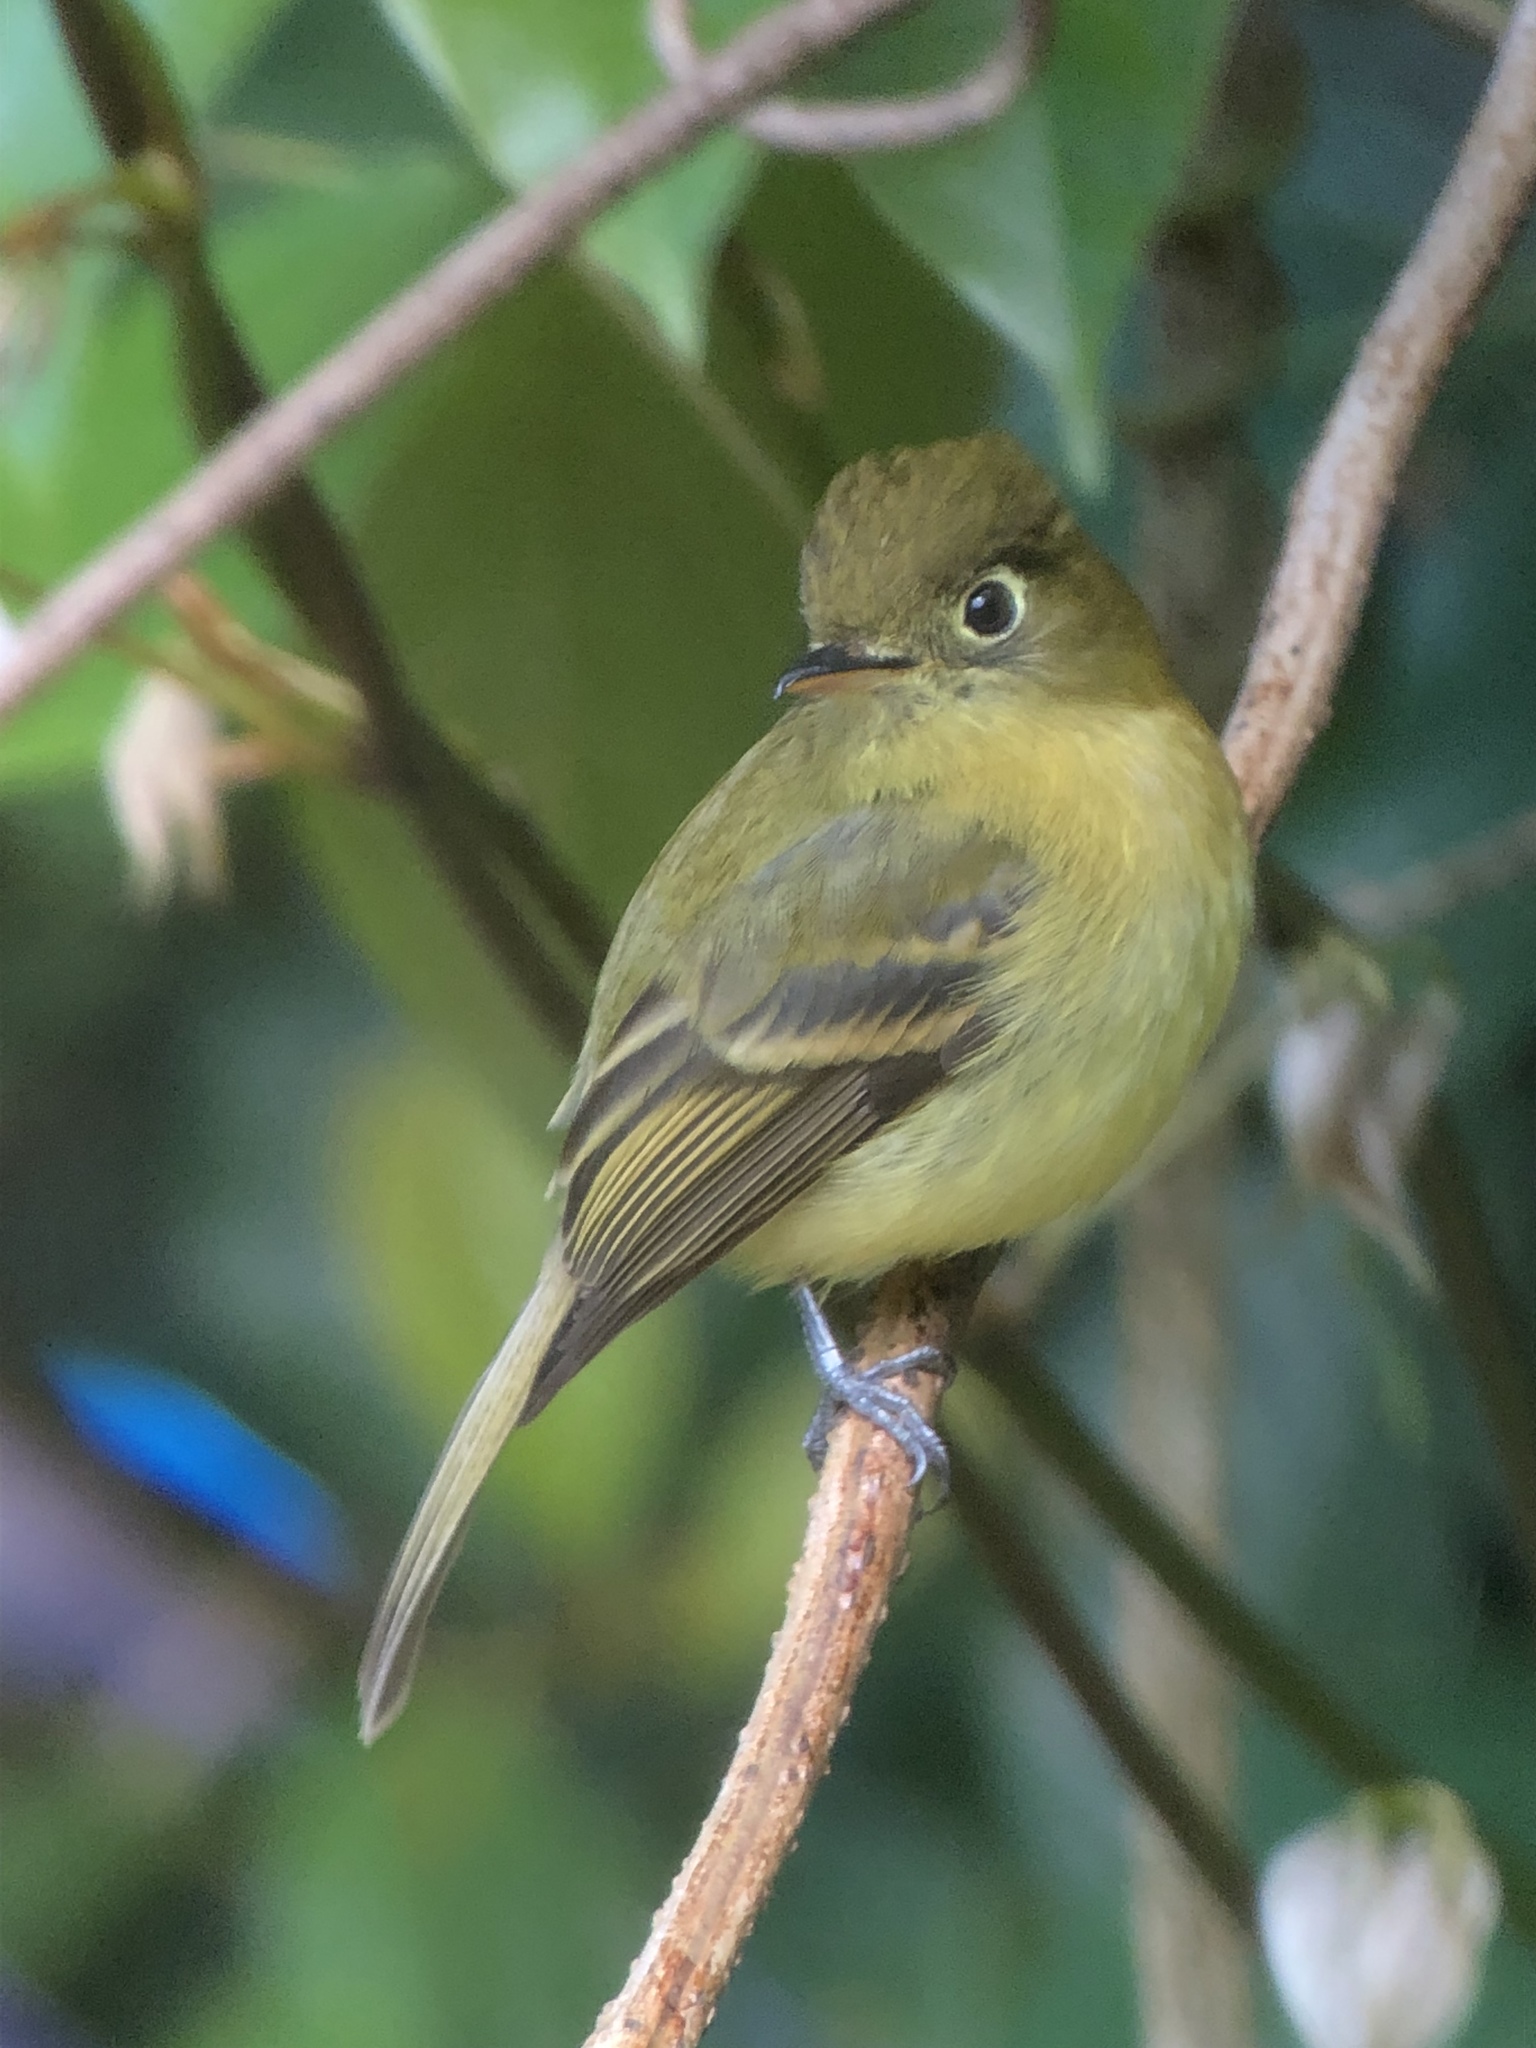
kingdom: Animalia
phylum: Chordata
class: Aves
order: Passeriformes
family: Tyrannidae
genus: Empidonax
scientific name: Empidonax flavescens
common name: Yellowish flycatcher
